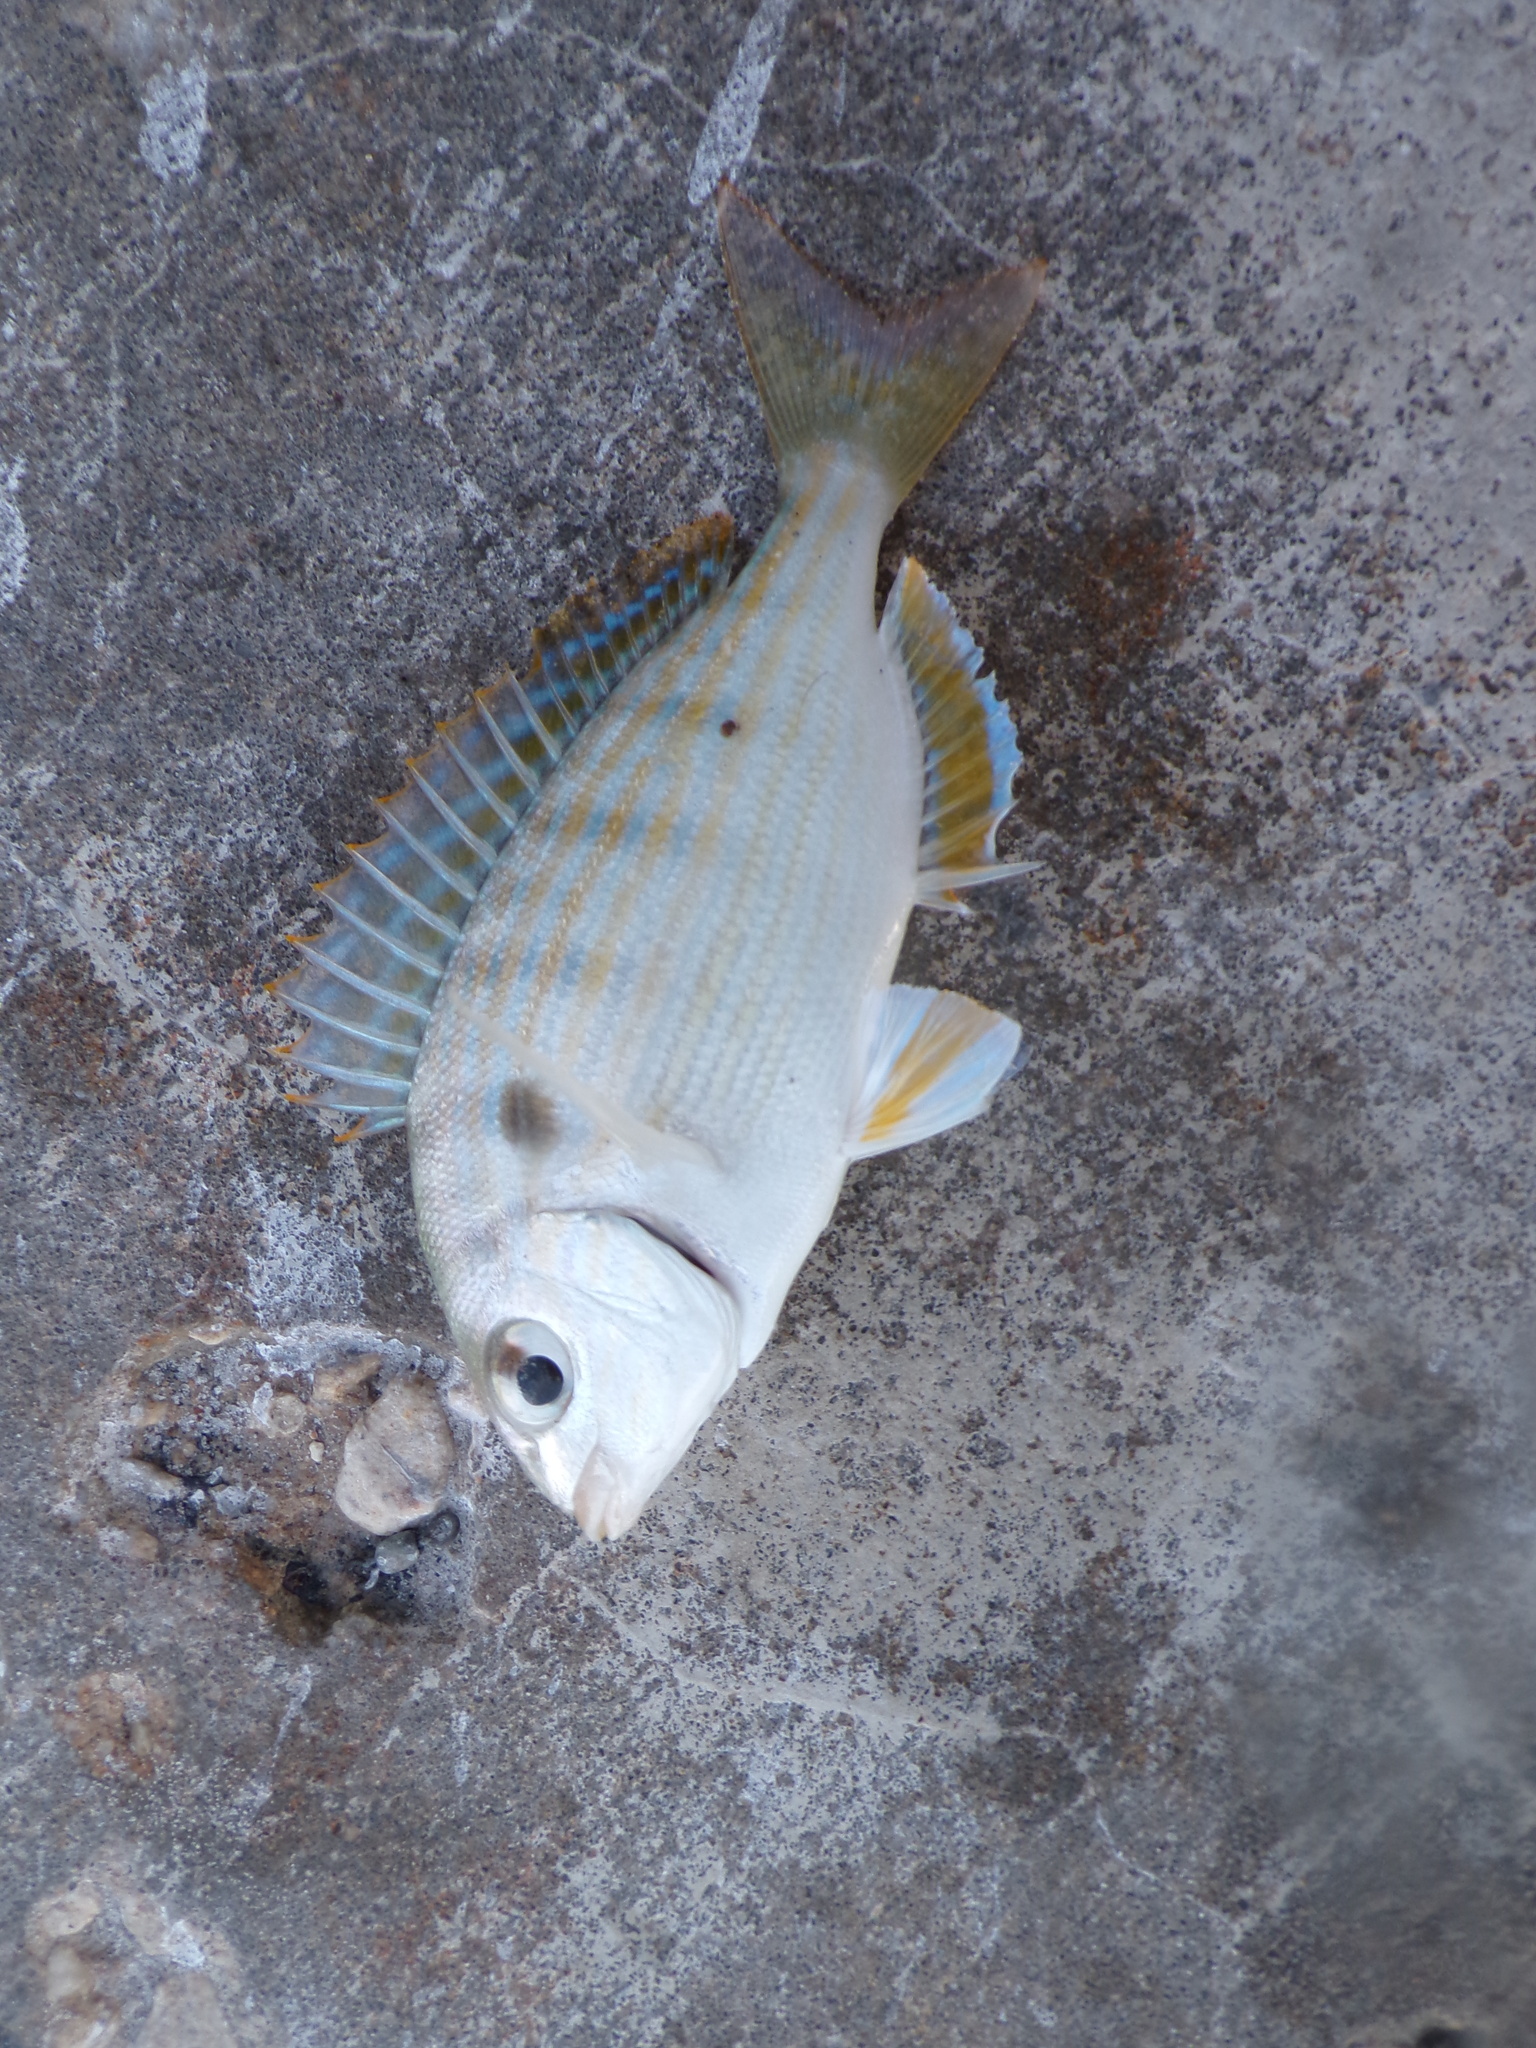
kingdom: Animalia
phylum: Chordata
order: Perciformes
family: Sparidae
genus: Lagodon
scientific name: Lagodon rhomboides
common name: Pinfish
